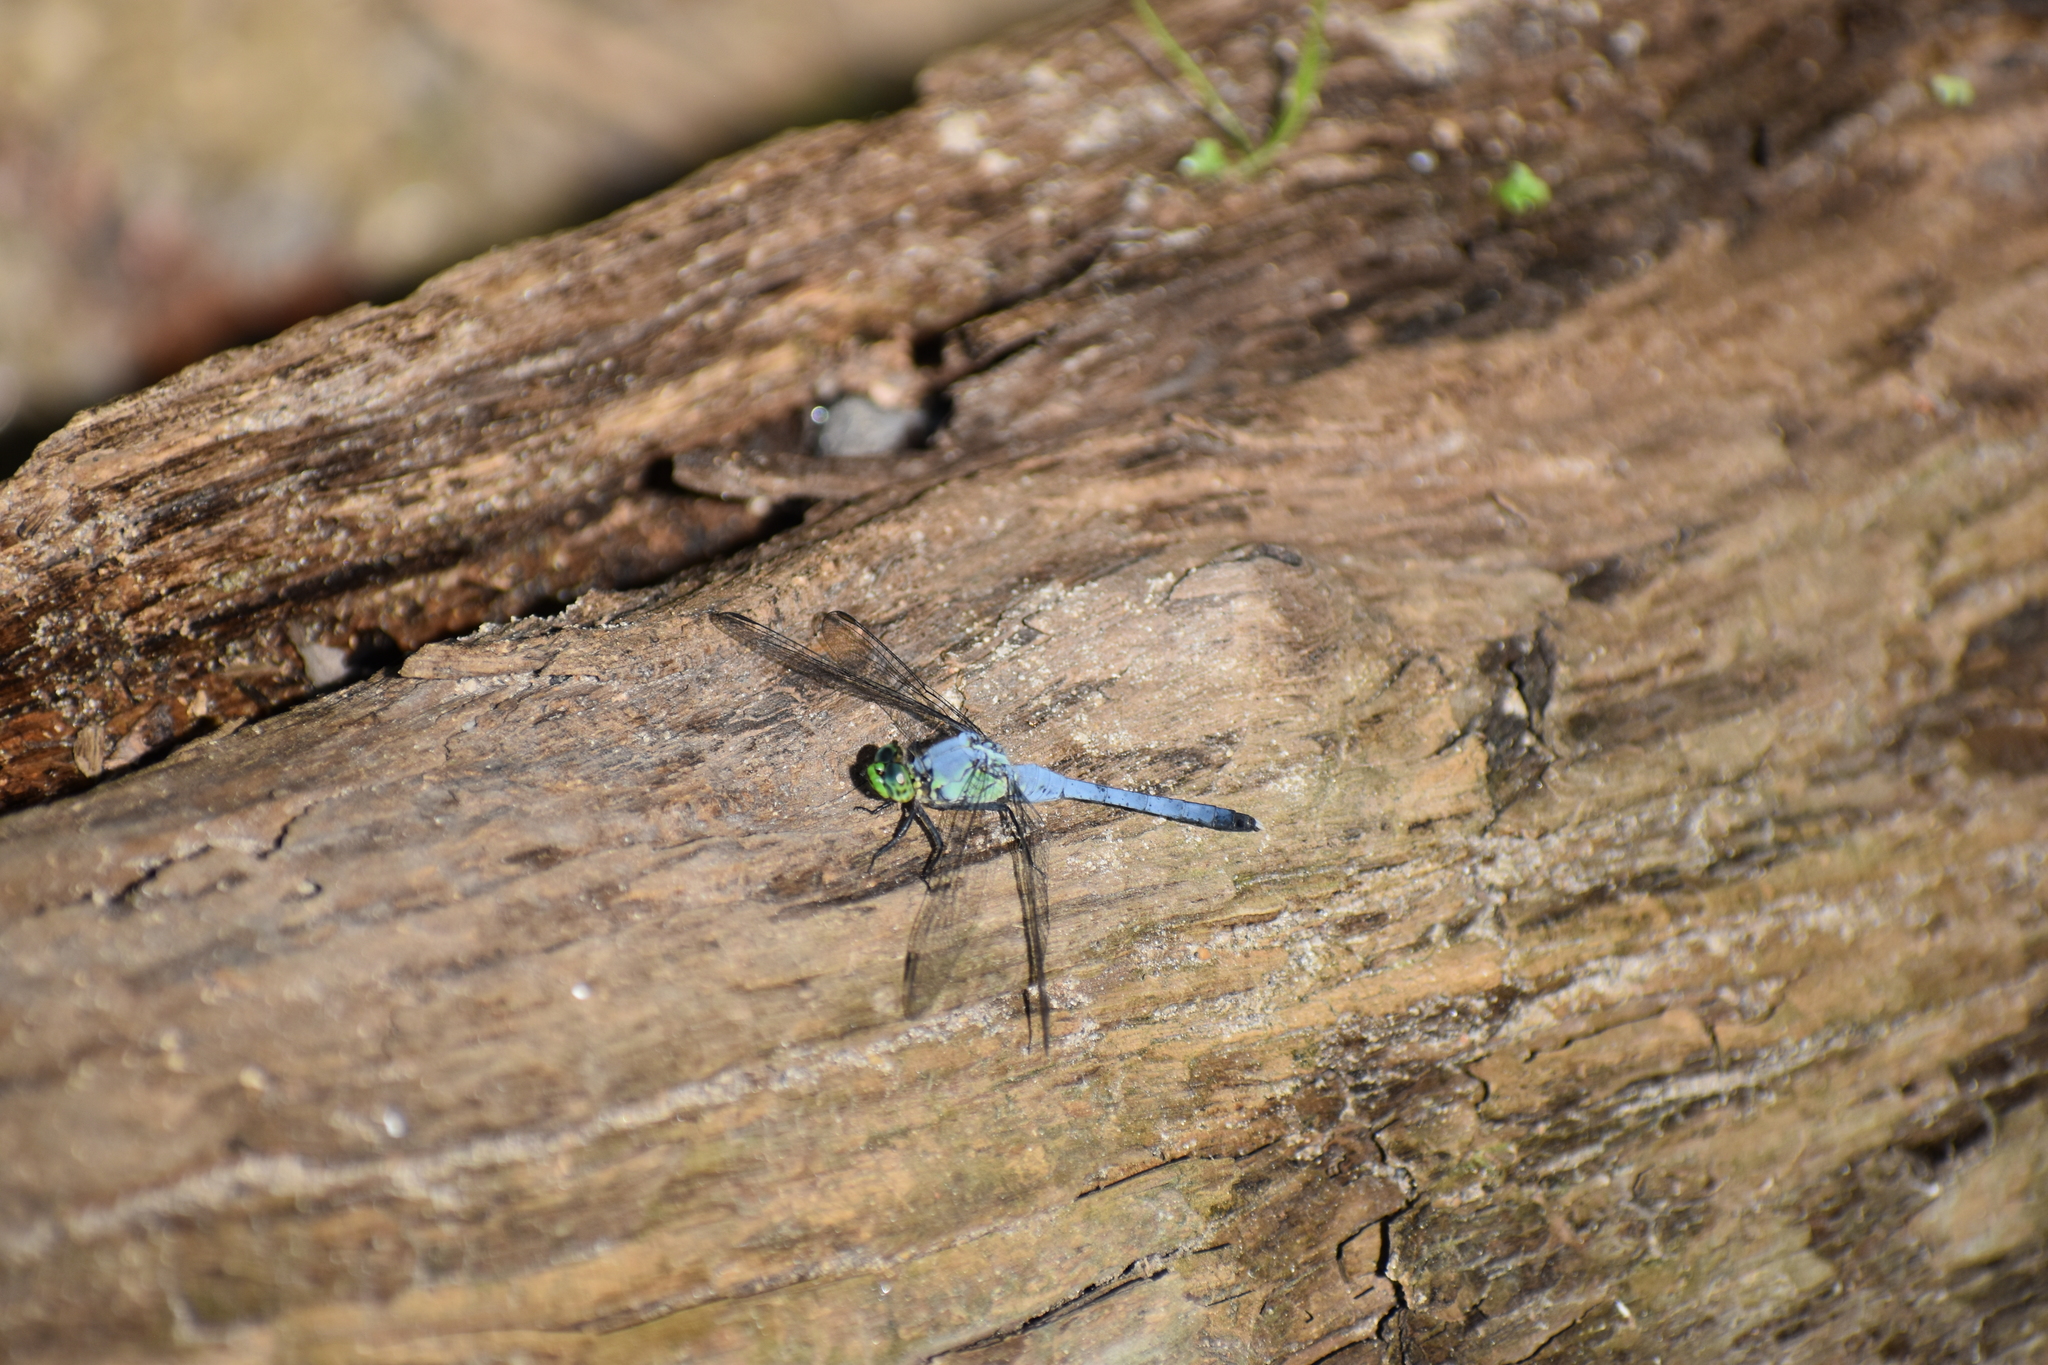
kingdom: Animalia
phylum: Arthropoda
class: Insecta
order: Odonata
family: Libellulidae
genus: Erythemis
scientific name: Erythemis simplicicollis
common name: Eastern pondhawk
